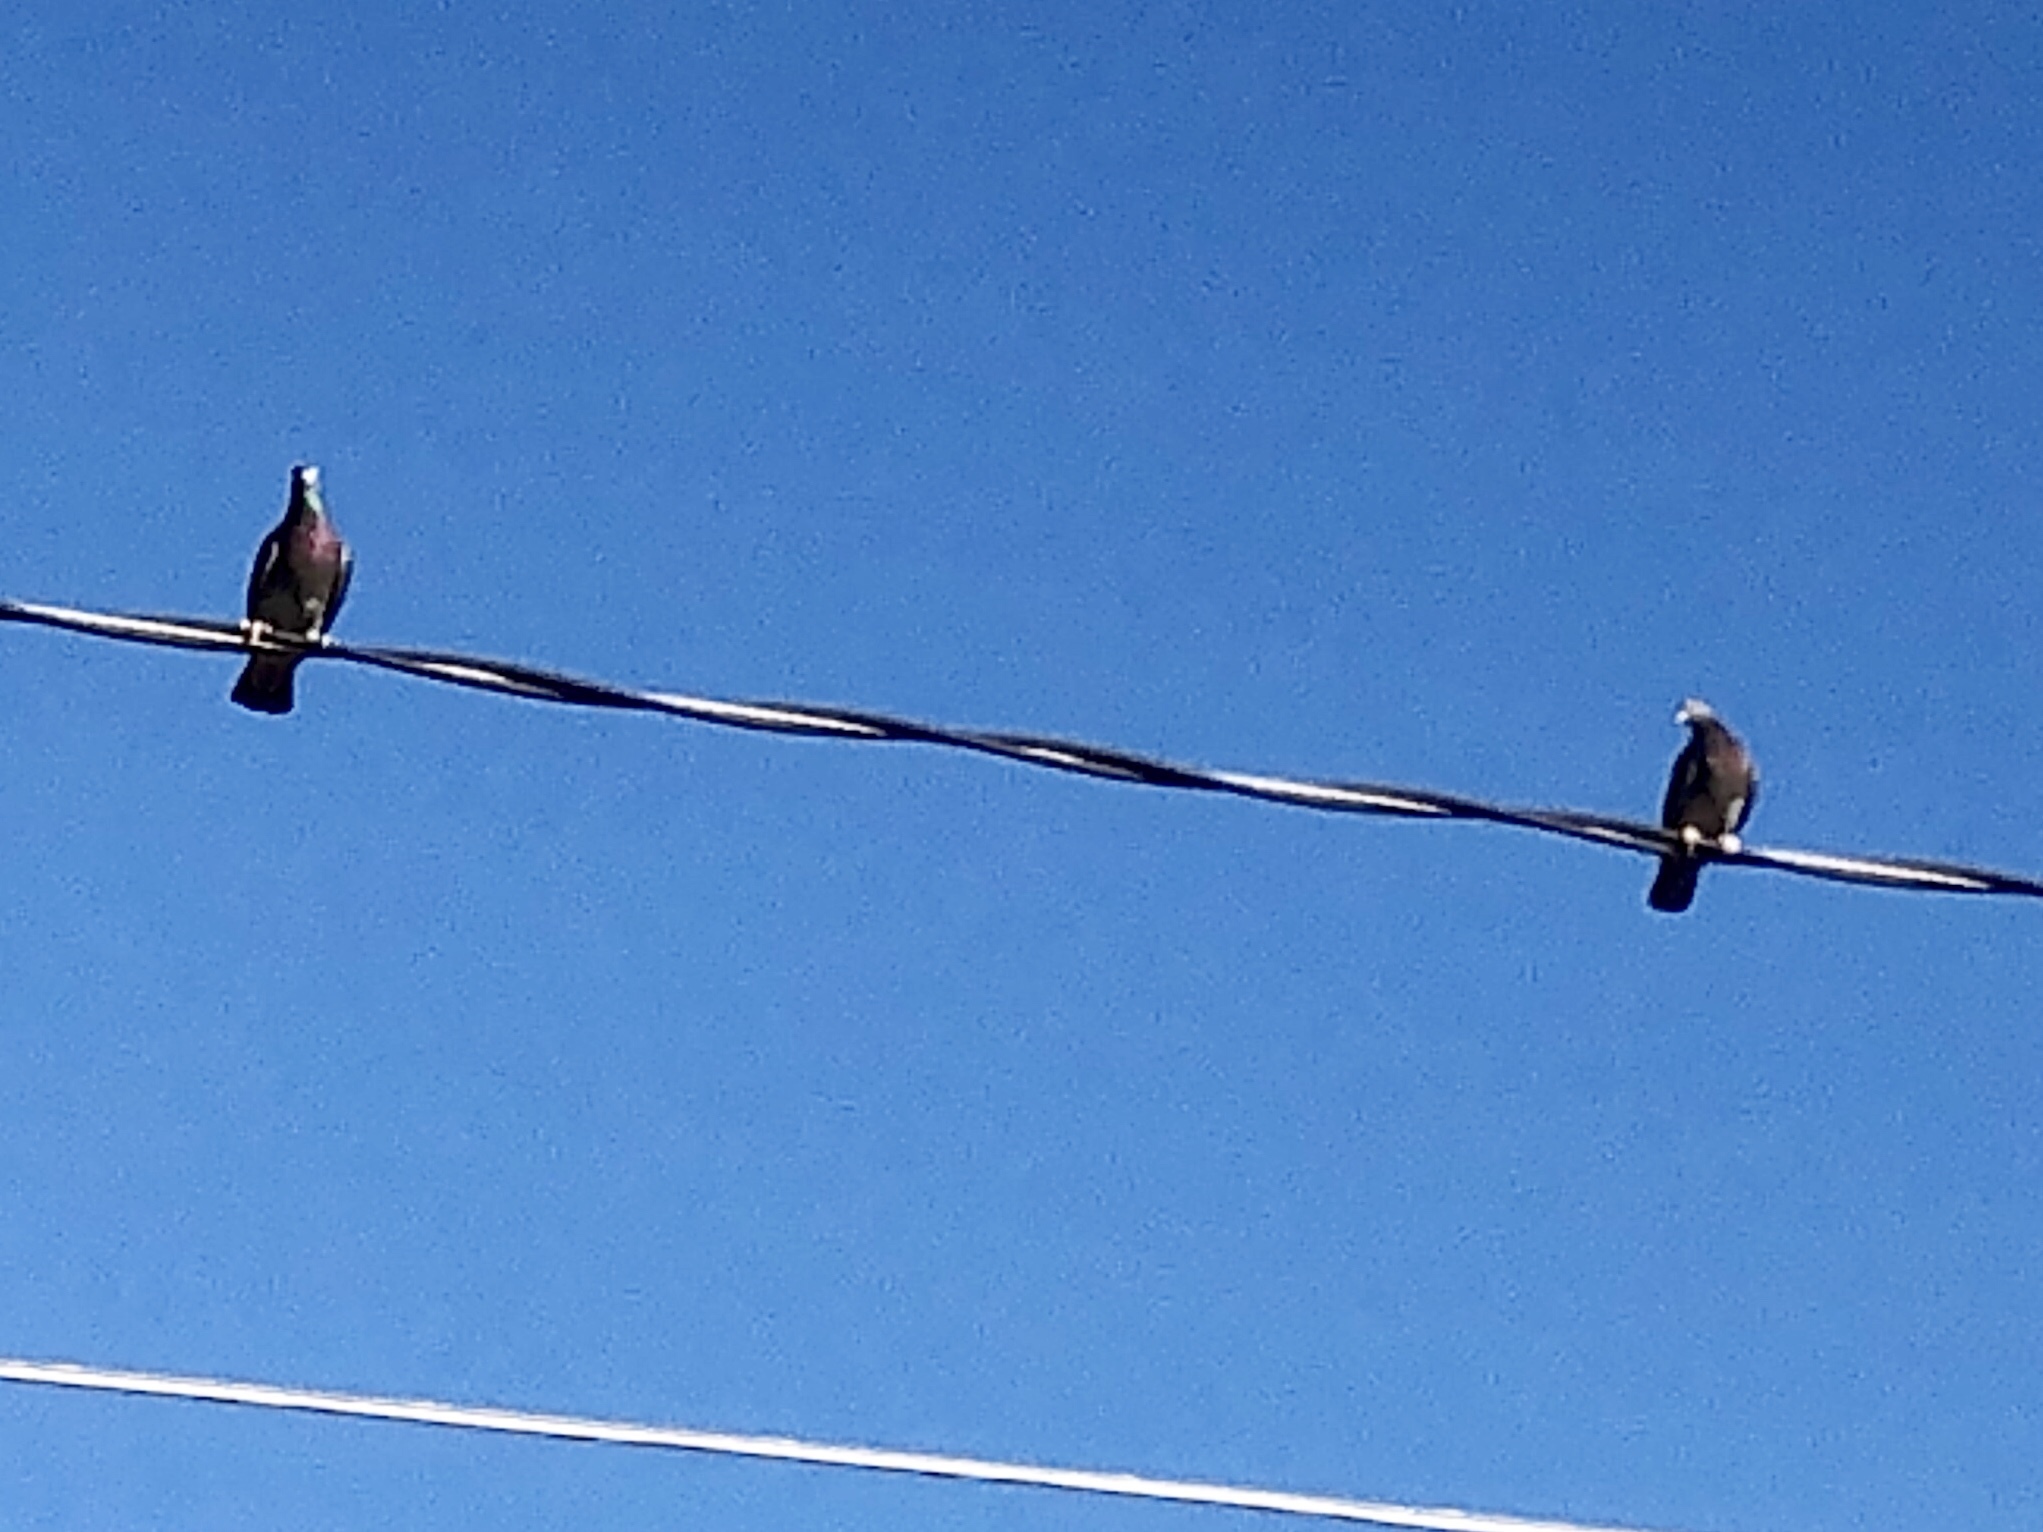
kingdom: Animalia
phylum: Chordata
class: Aves
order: Columbiformes
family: Columbidae
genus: Columba
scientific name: Columba livia
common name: Rock pigeon
